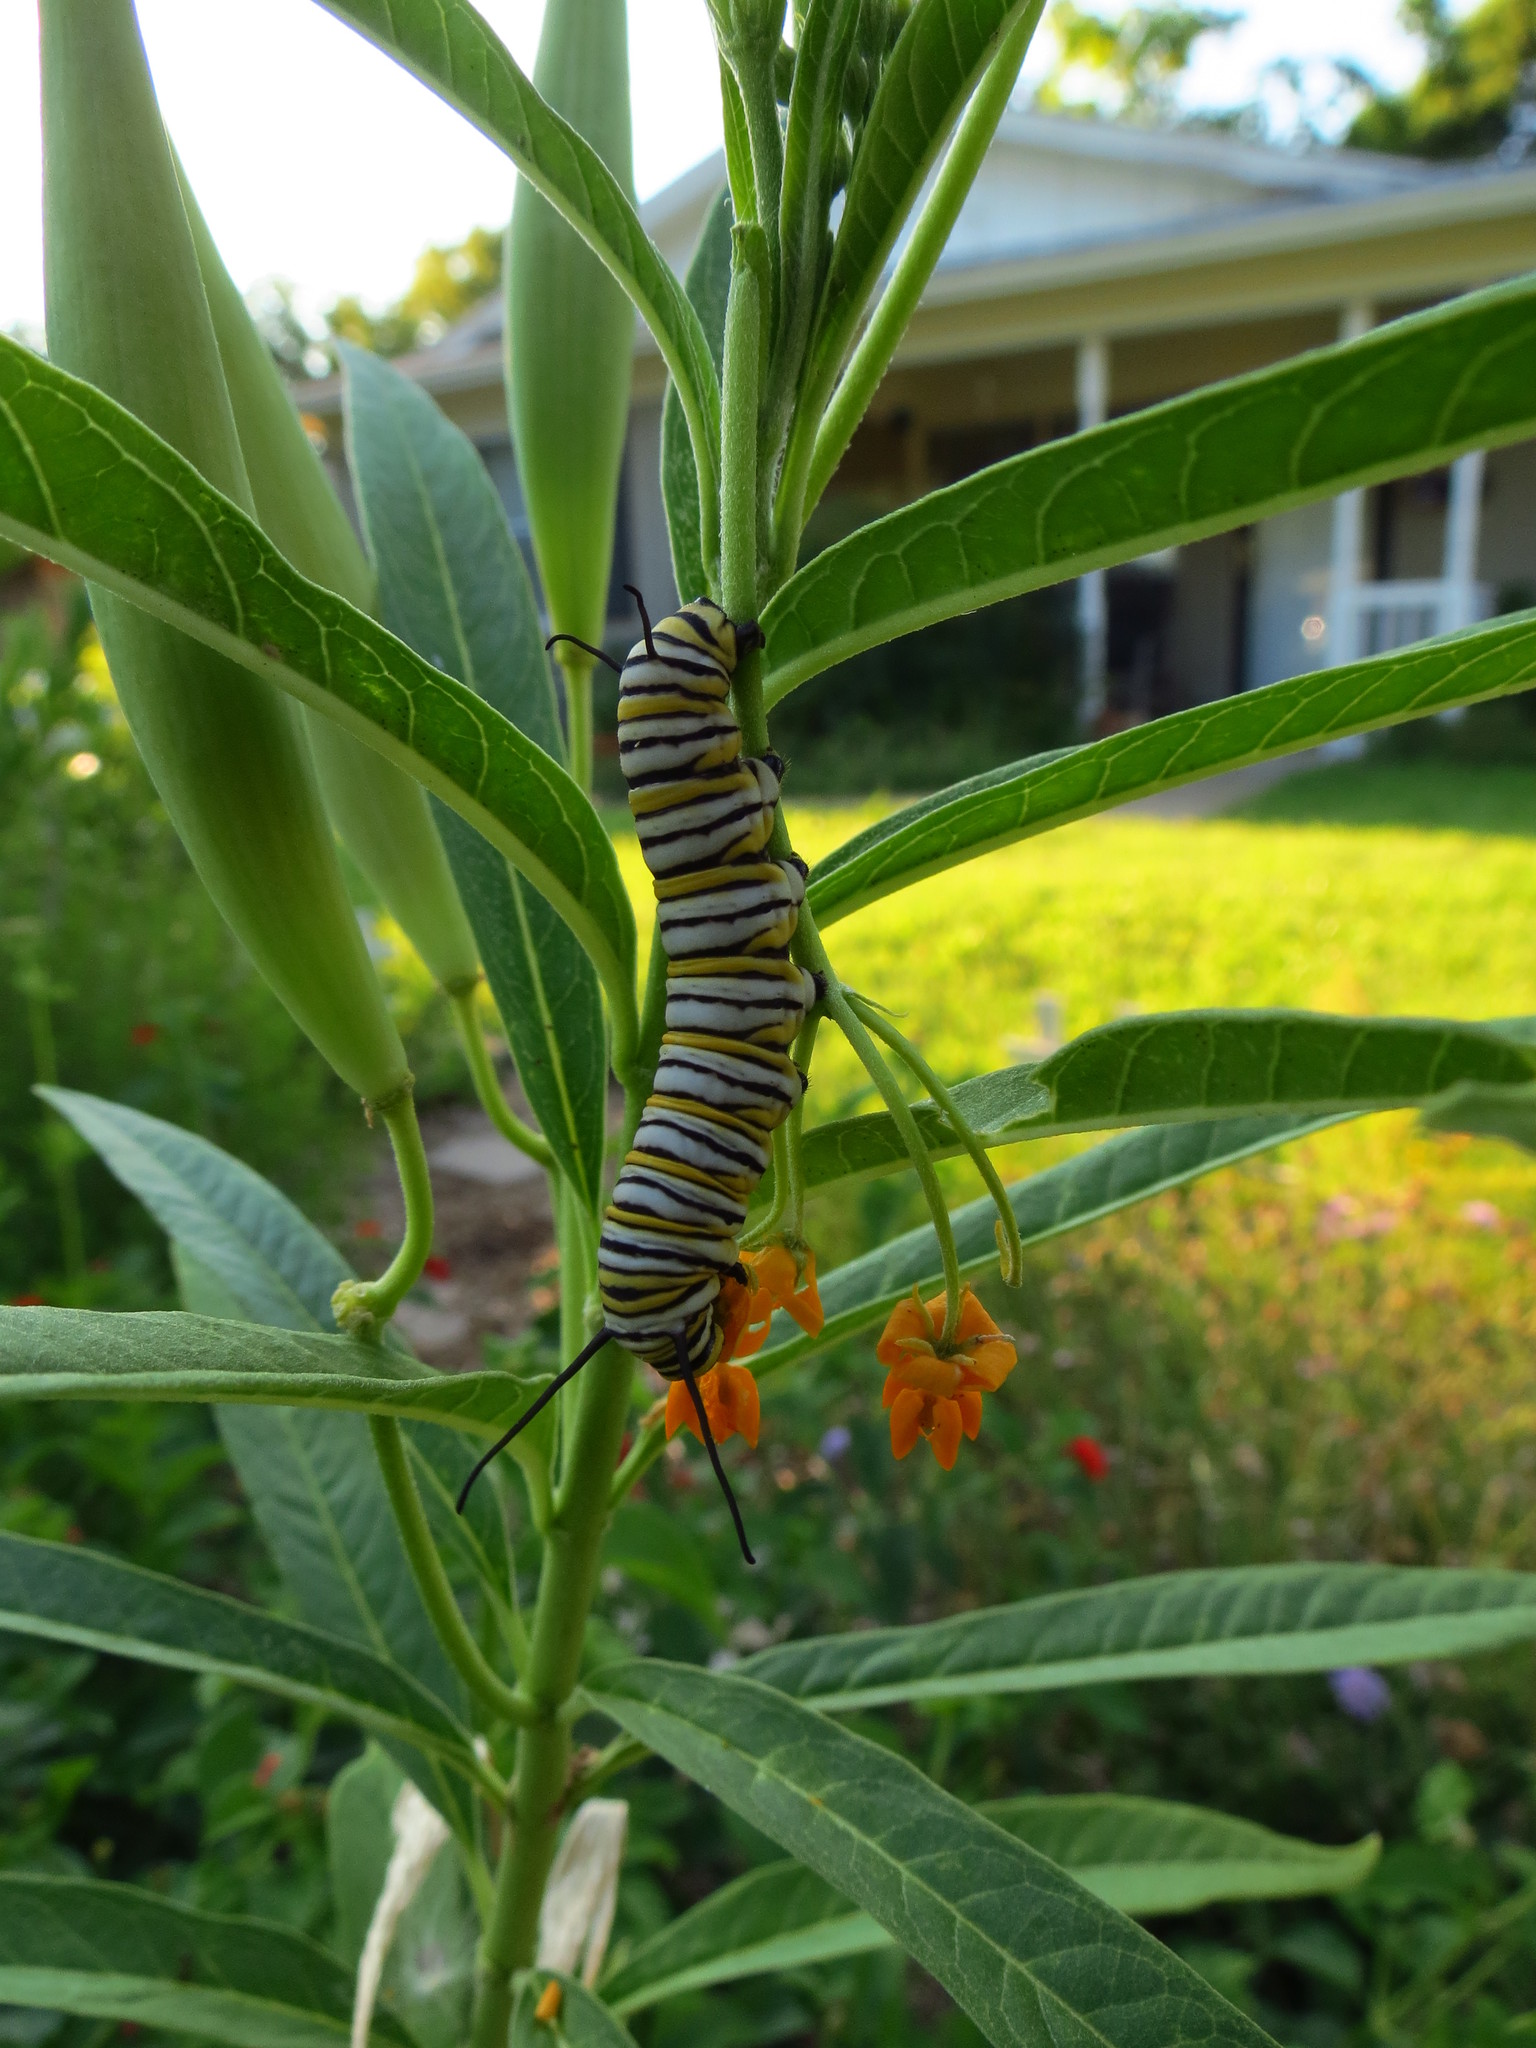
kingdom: Animalia
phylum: Arthropoda
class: Insecta
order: Lepidoptera
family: Nymphalidae
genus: Danaus
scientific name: Danaus plexippus
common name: Monarch
